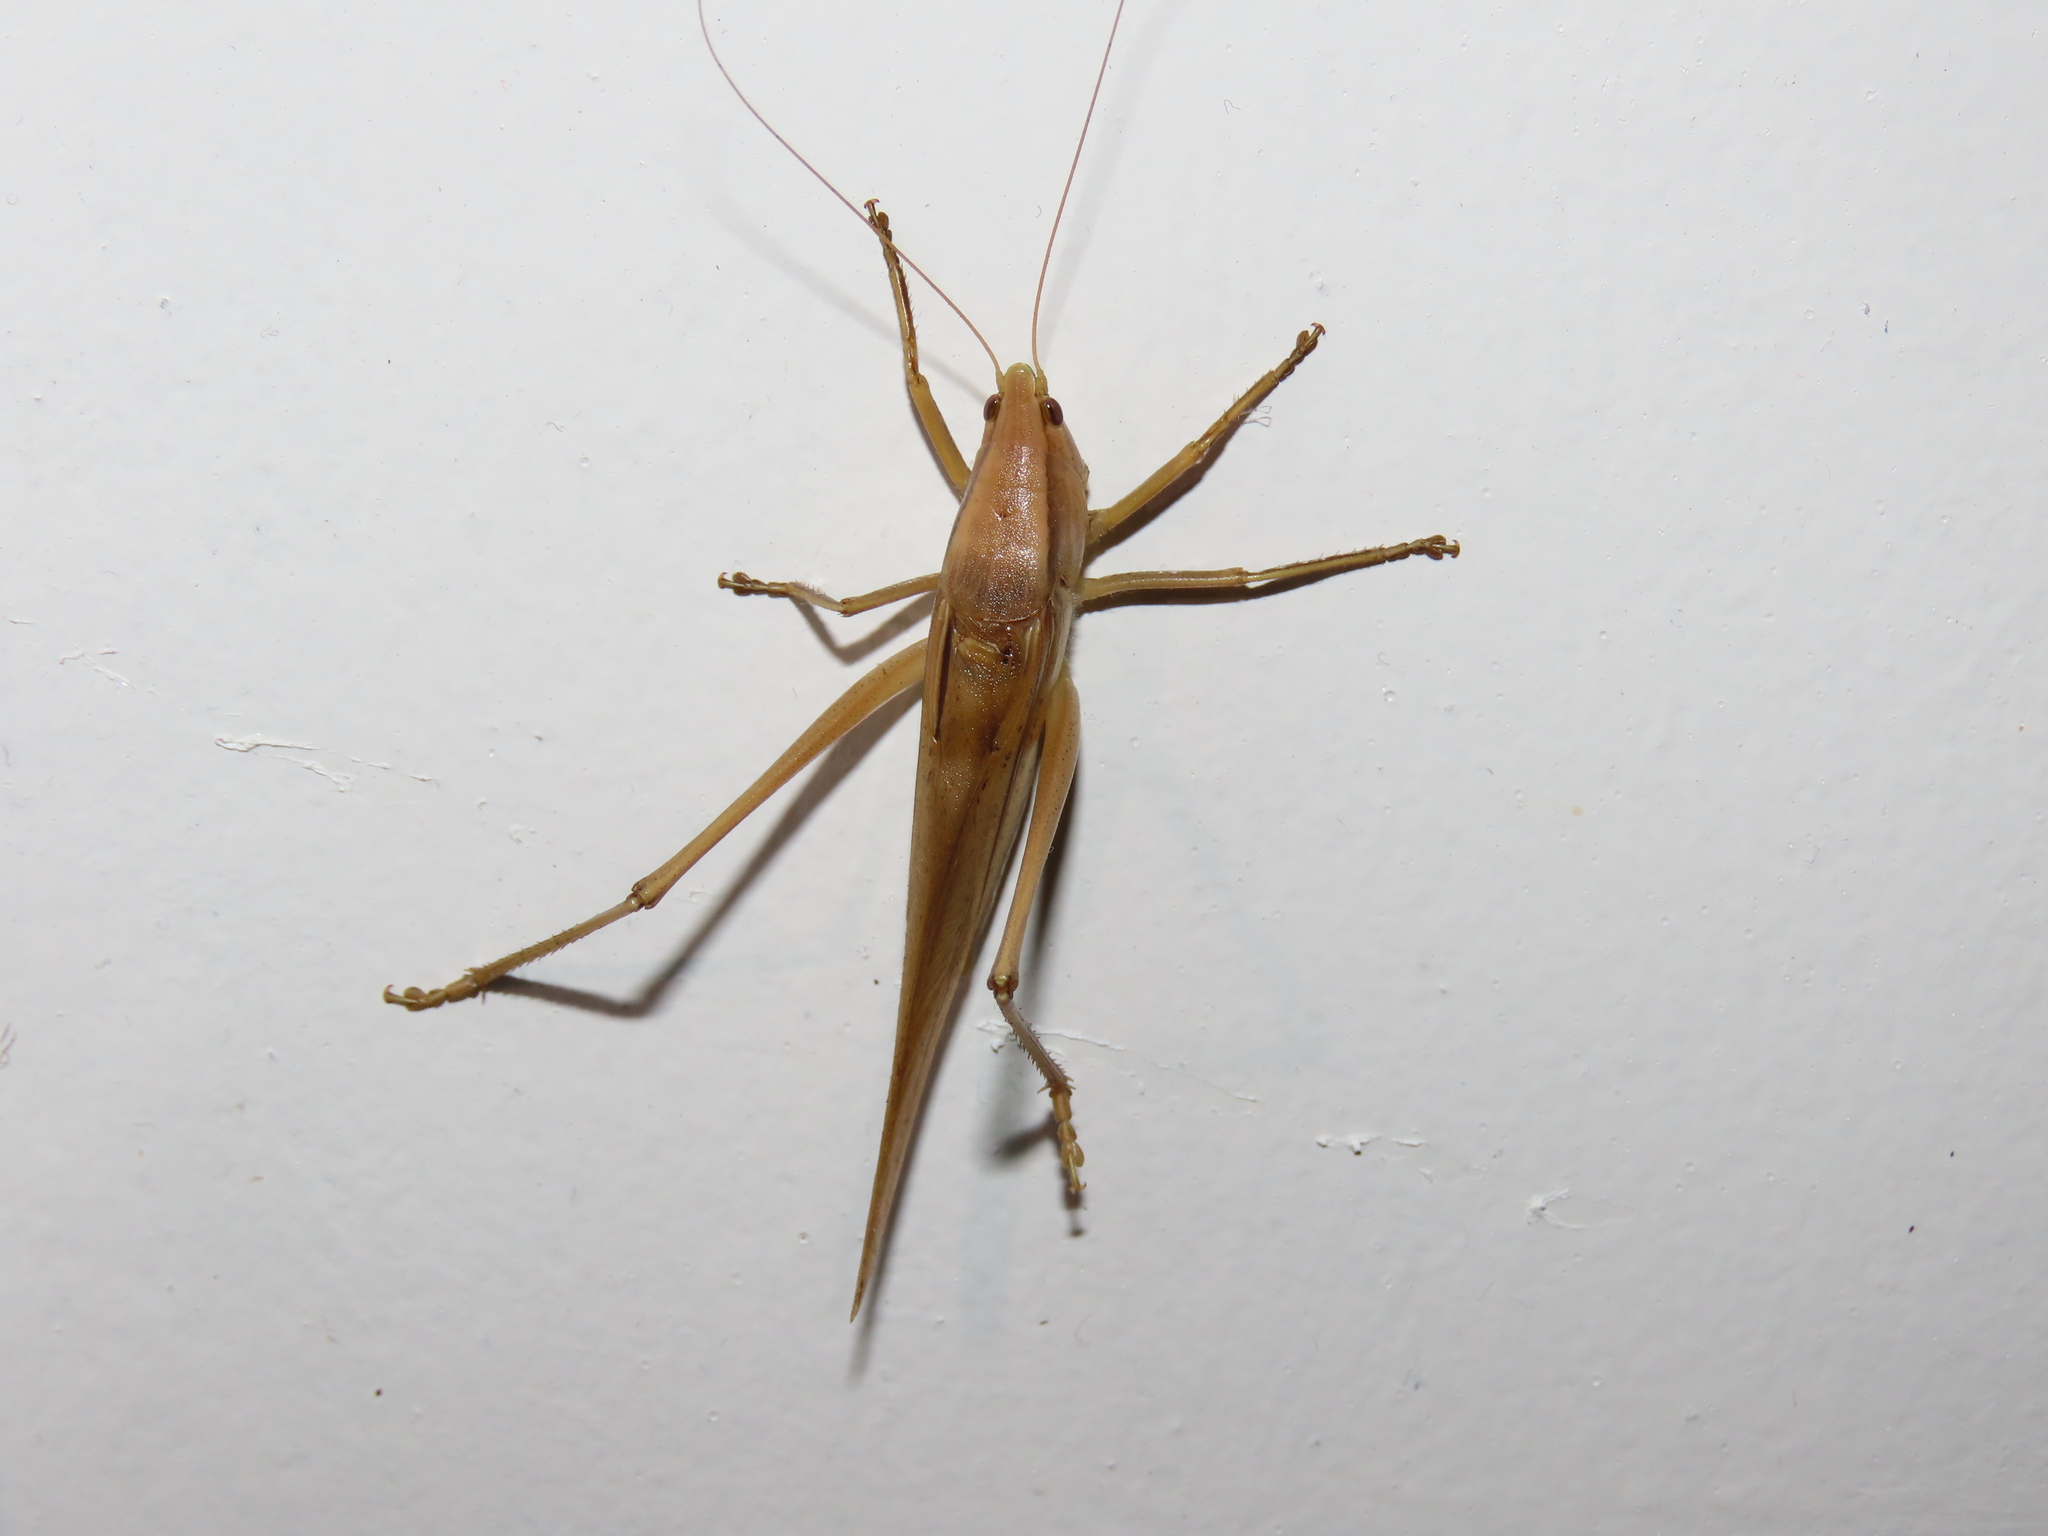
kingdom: Animalia
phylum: Arthropoda
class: Insecta
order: Orthoptera
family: Tettigoniidae
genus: Neoconocephalus
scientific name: Neoconocephalus triops
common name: Broad-tipped conehead
